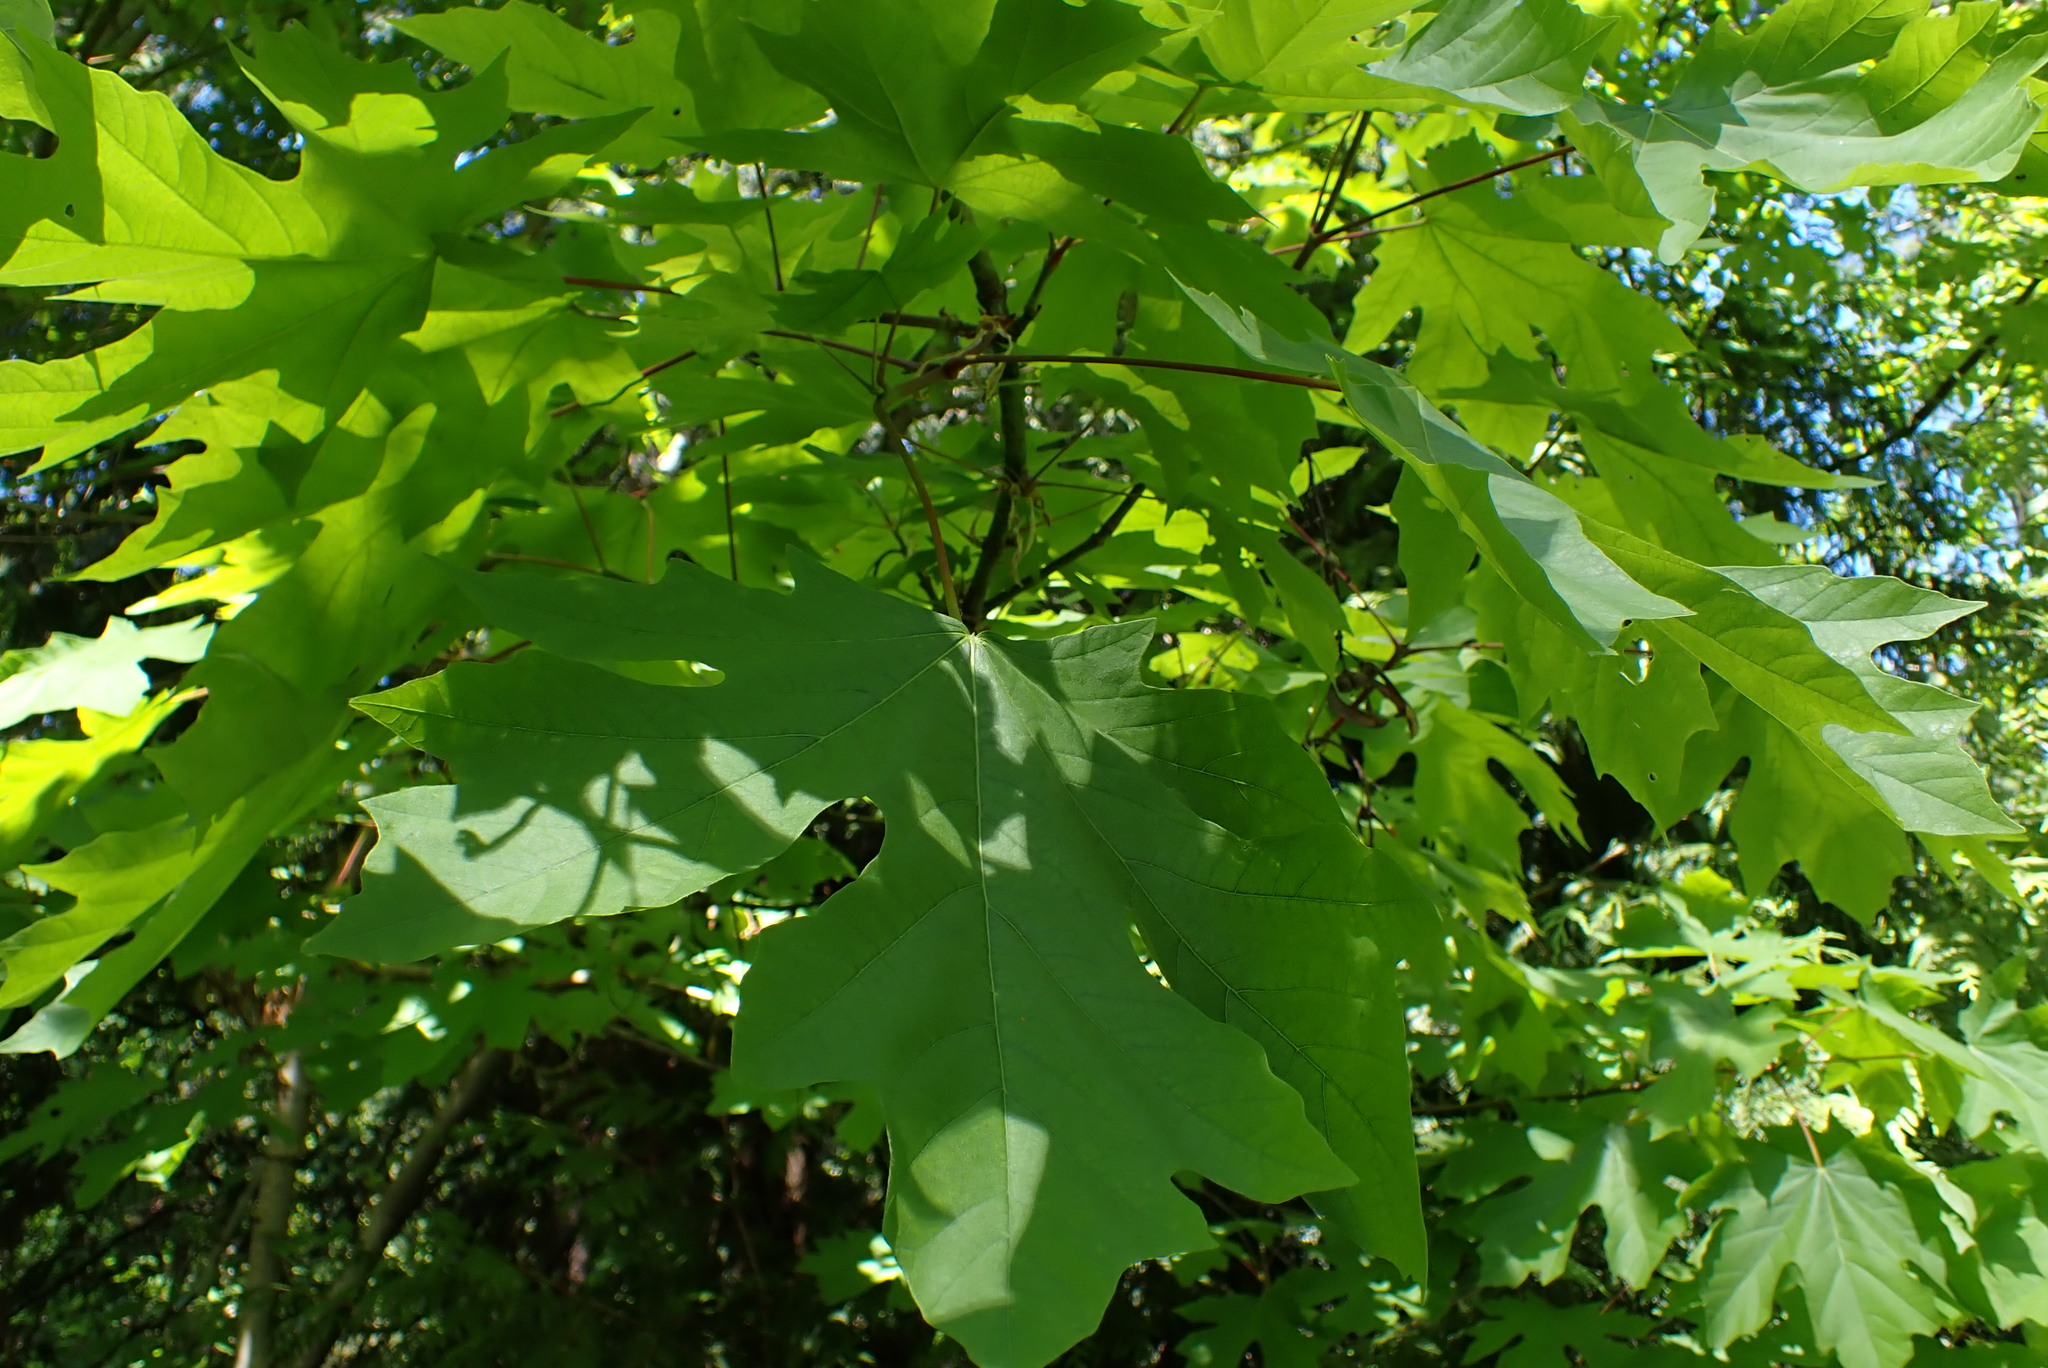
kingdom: Plantae
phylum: Tracheophyta
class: Magnoliopsida
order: Sapindales
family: Sapindaceae
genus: Acer
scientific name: Acer macrophyllum
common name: Oregon maple
